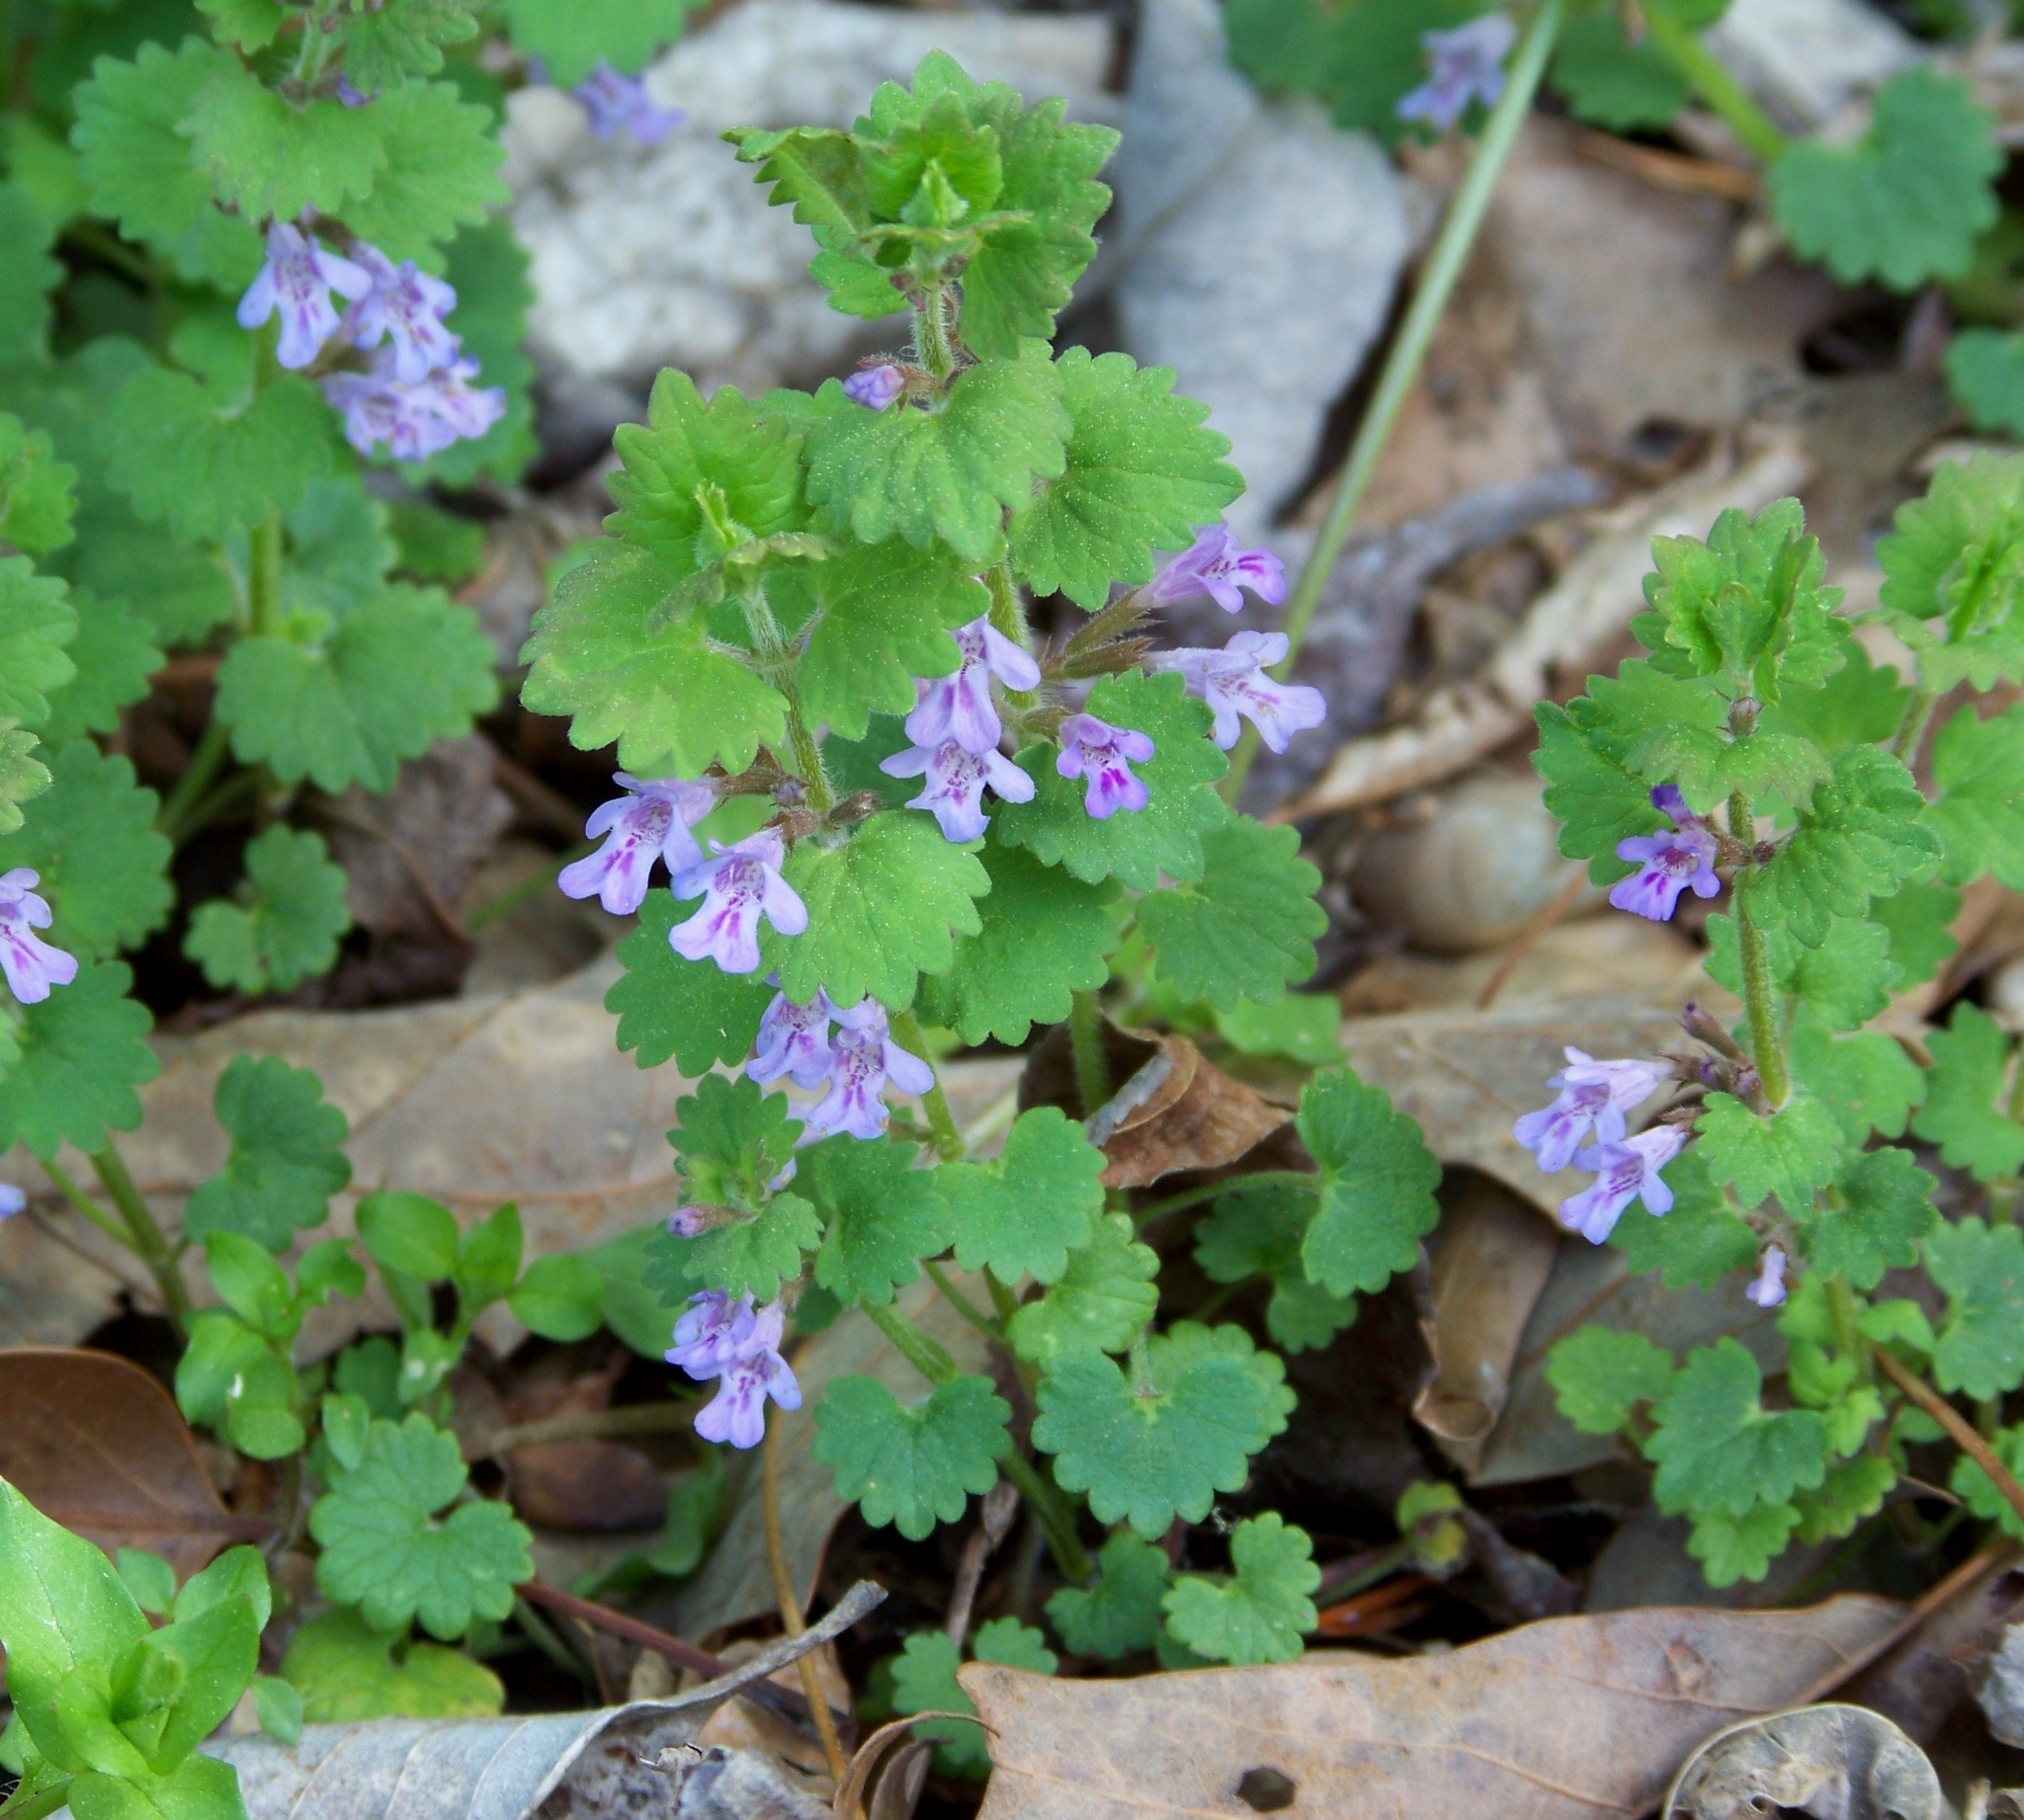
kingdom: Plantae
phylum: Tracheophyta
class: Magnoliopsida
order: Lamiales
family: Lamiaceae
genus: Glechoma
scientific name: Glechoma hederacea
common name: Ground ivy
